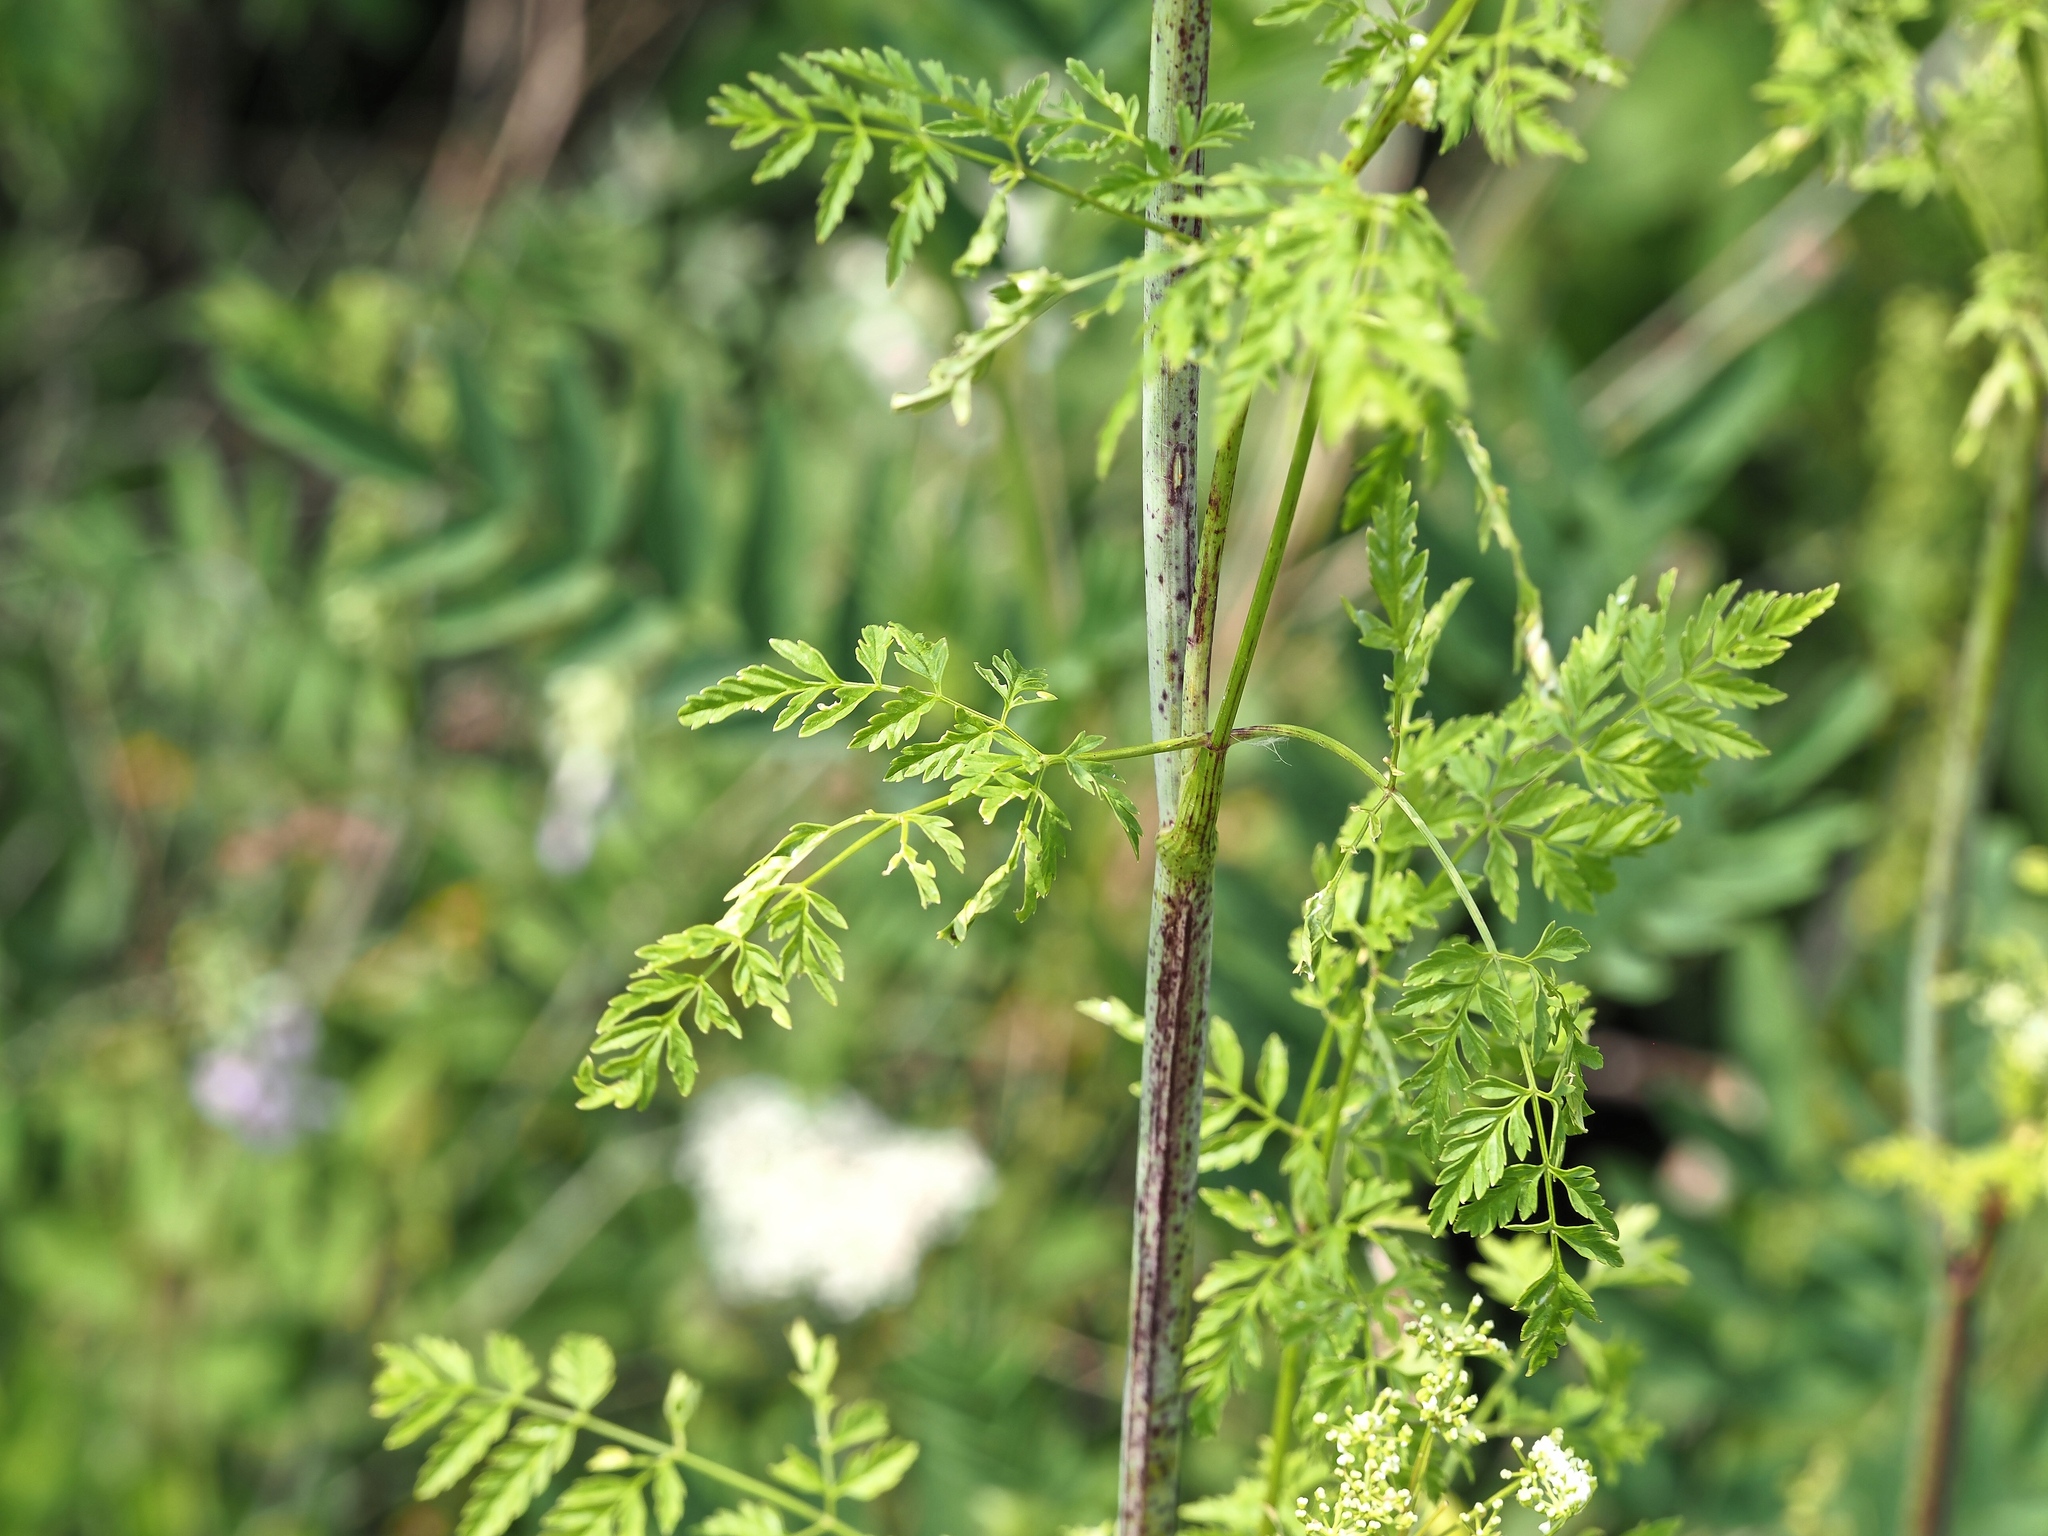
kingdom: Plantae
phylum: Tracheophyta
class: Magnoliopsida
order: Apiales
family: Apiaceae
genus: Conium
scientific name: Conium maculatum
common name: Hemlock
